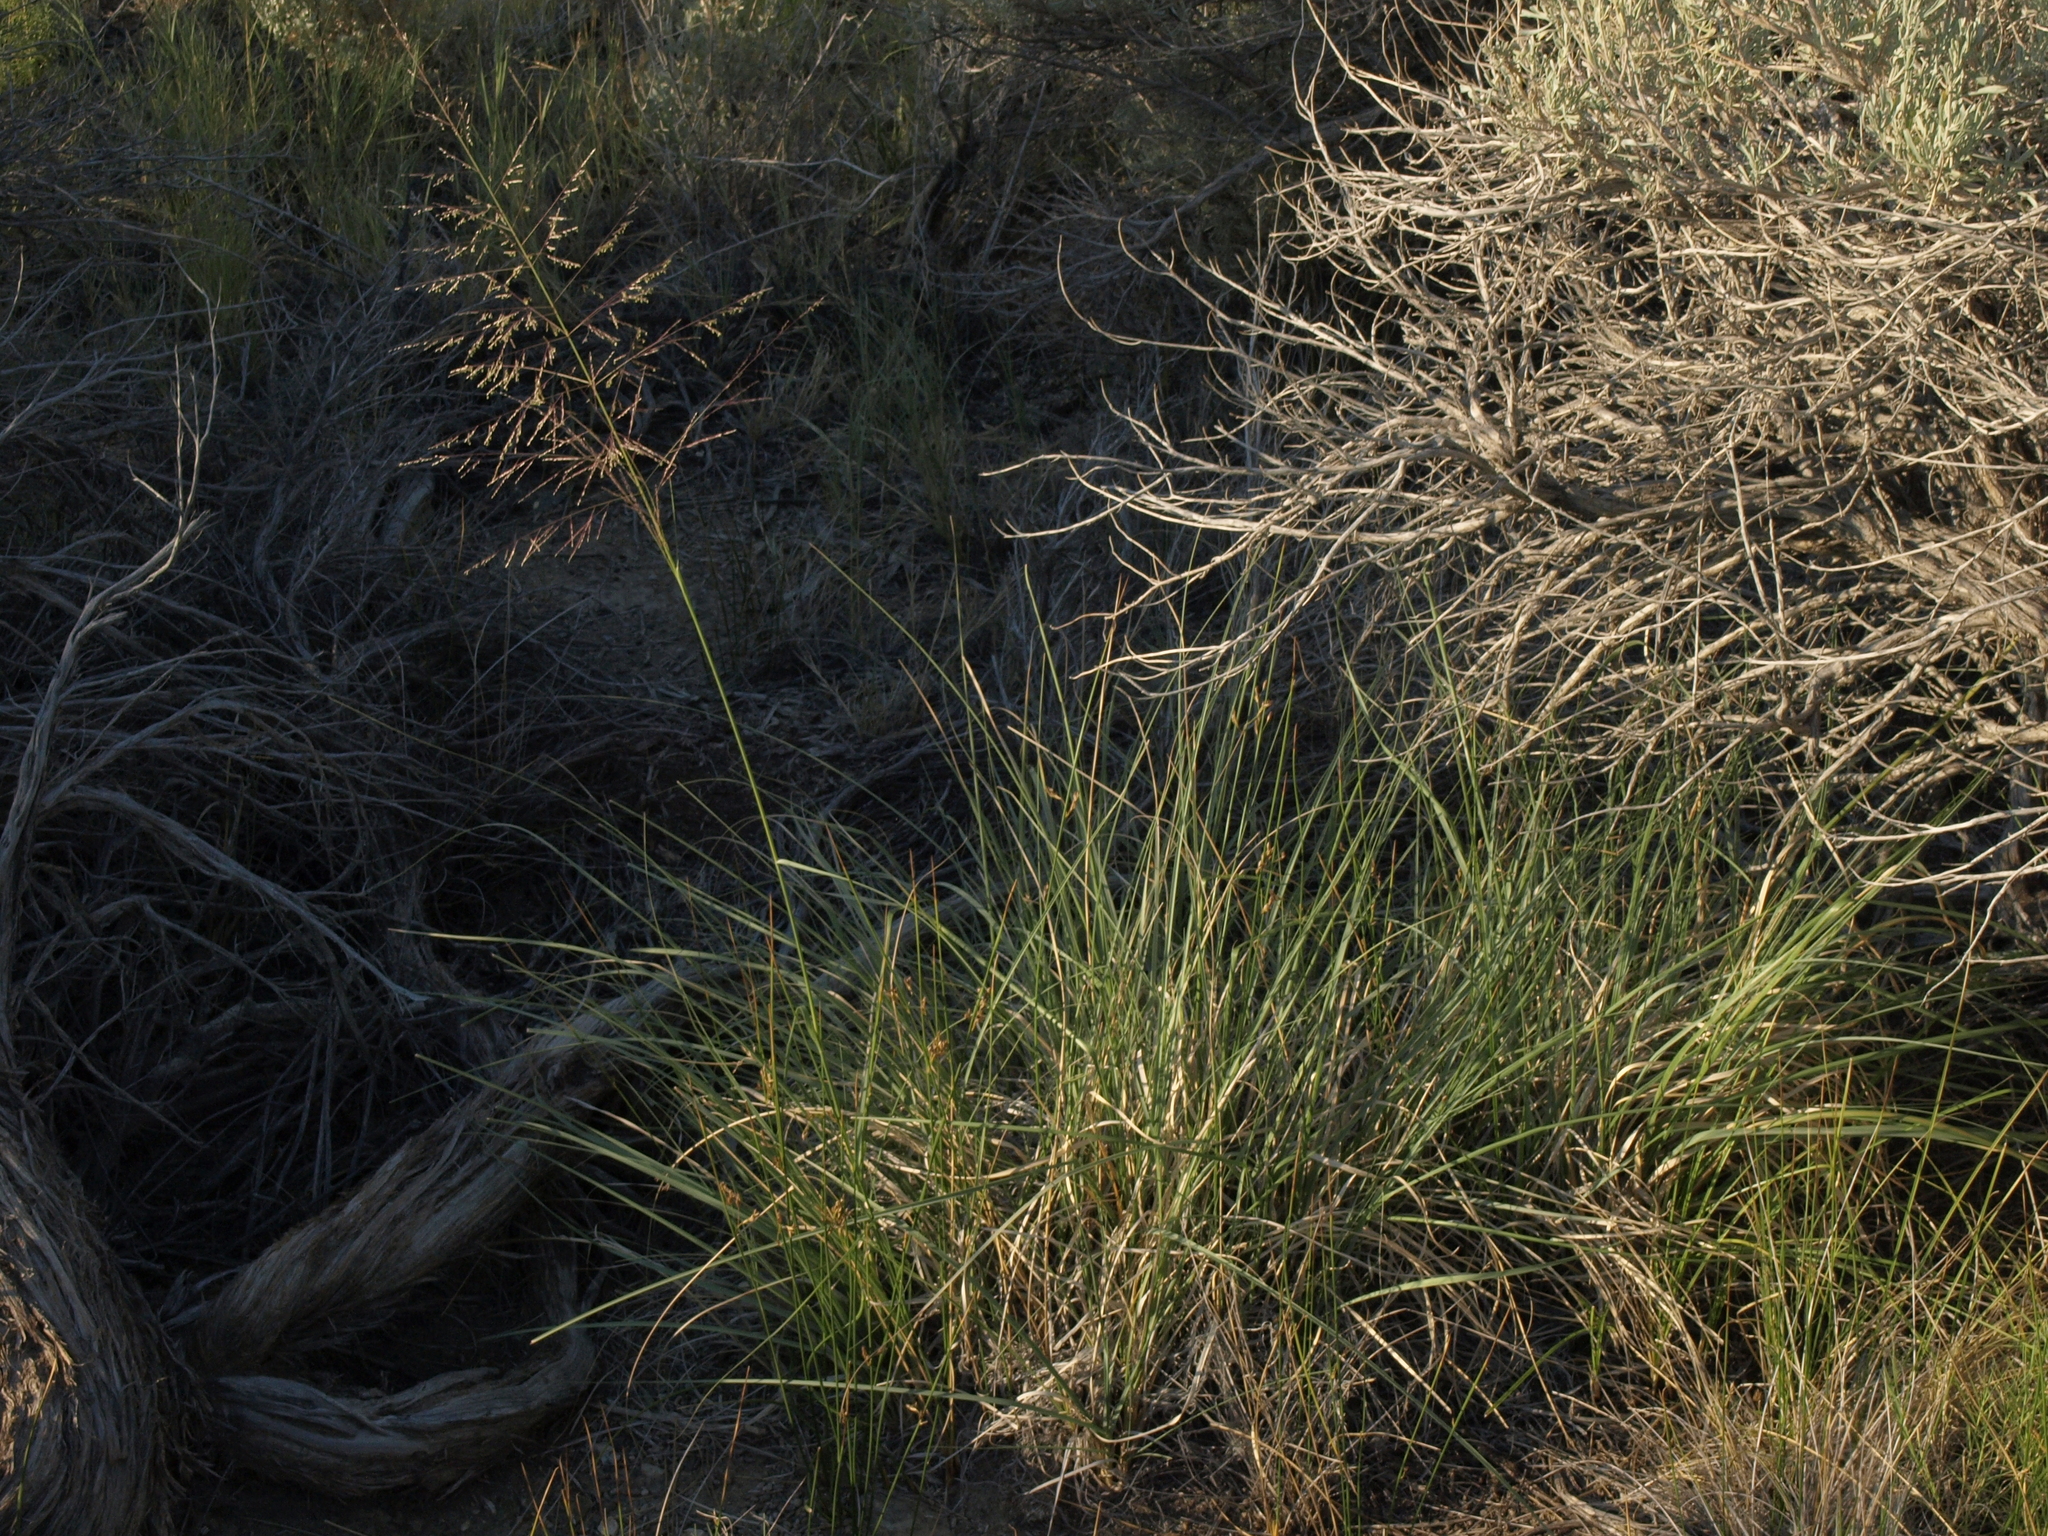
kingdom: Plantae
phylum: Tracheophyta
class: Liliopsida
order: Poales
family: Poaceae
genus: Sporobolus
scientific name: Sporobolus airoides
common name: Alkali sacaton
